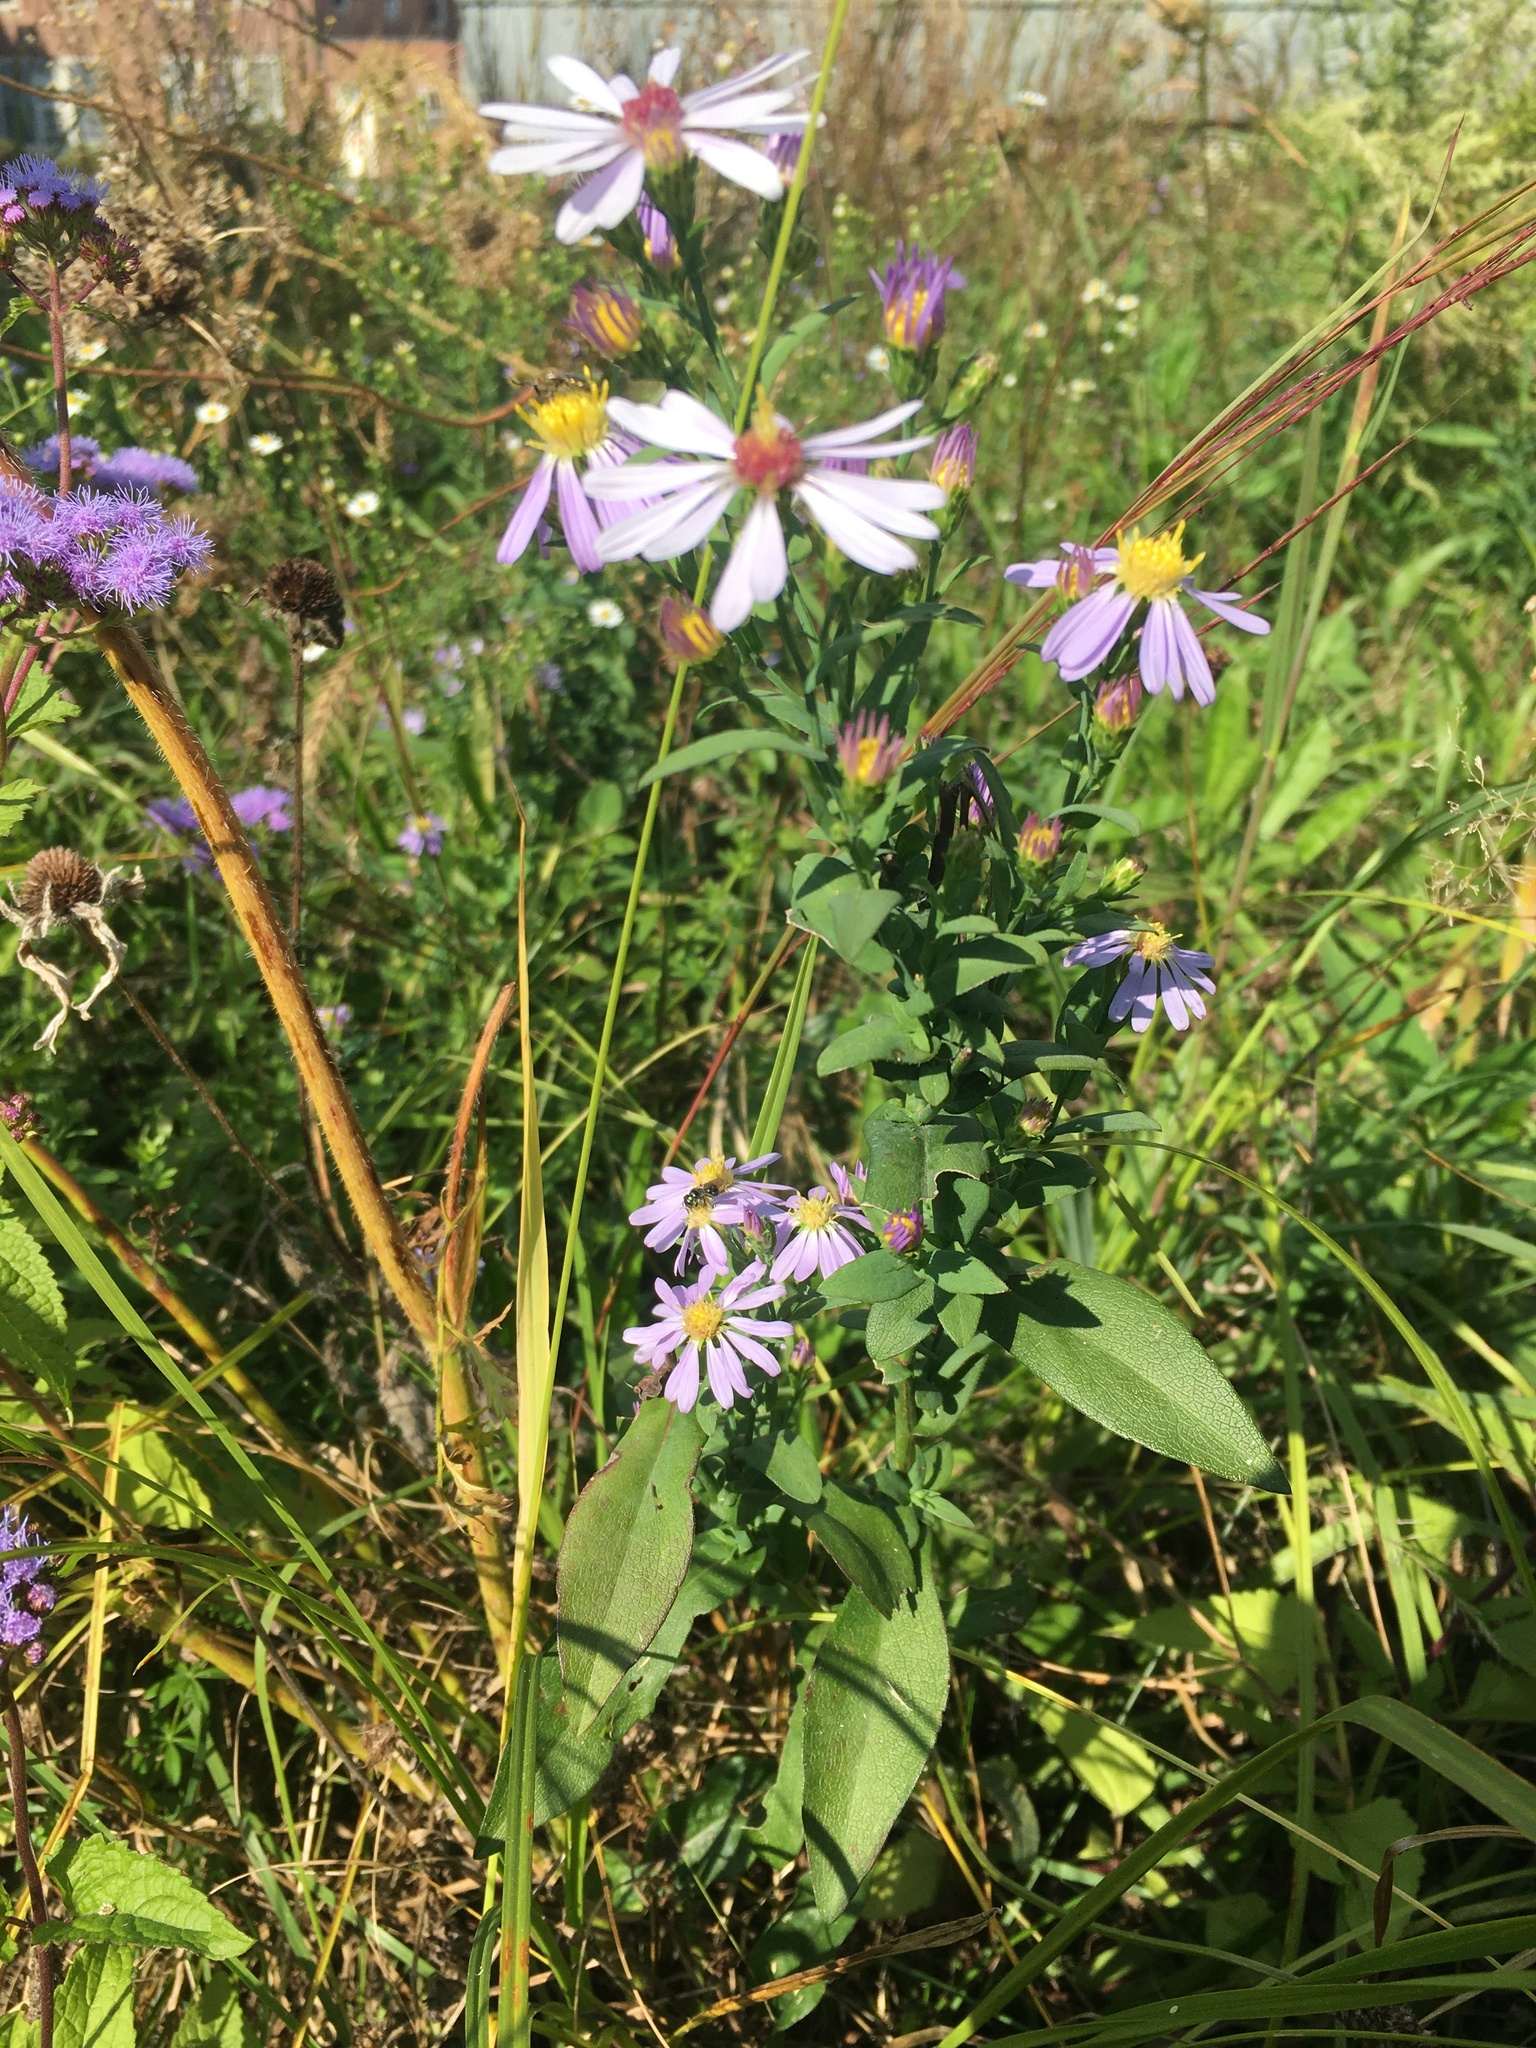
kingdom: Plantae
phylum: Tracheophyta
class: Magnoliopsida
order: Asterales
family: Asteraceae
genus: Symphyotrichum
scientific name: Symphyotrichum laeve
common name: Glaucous aster
